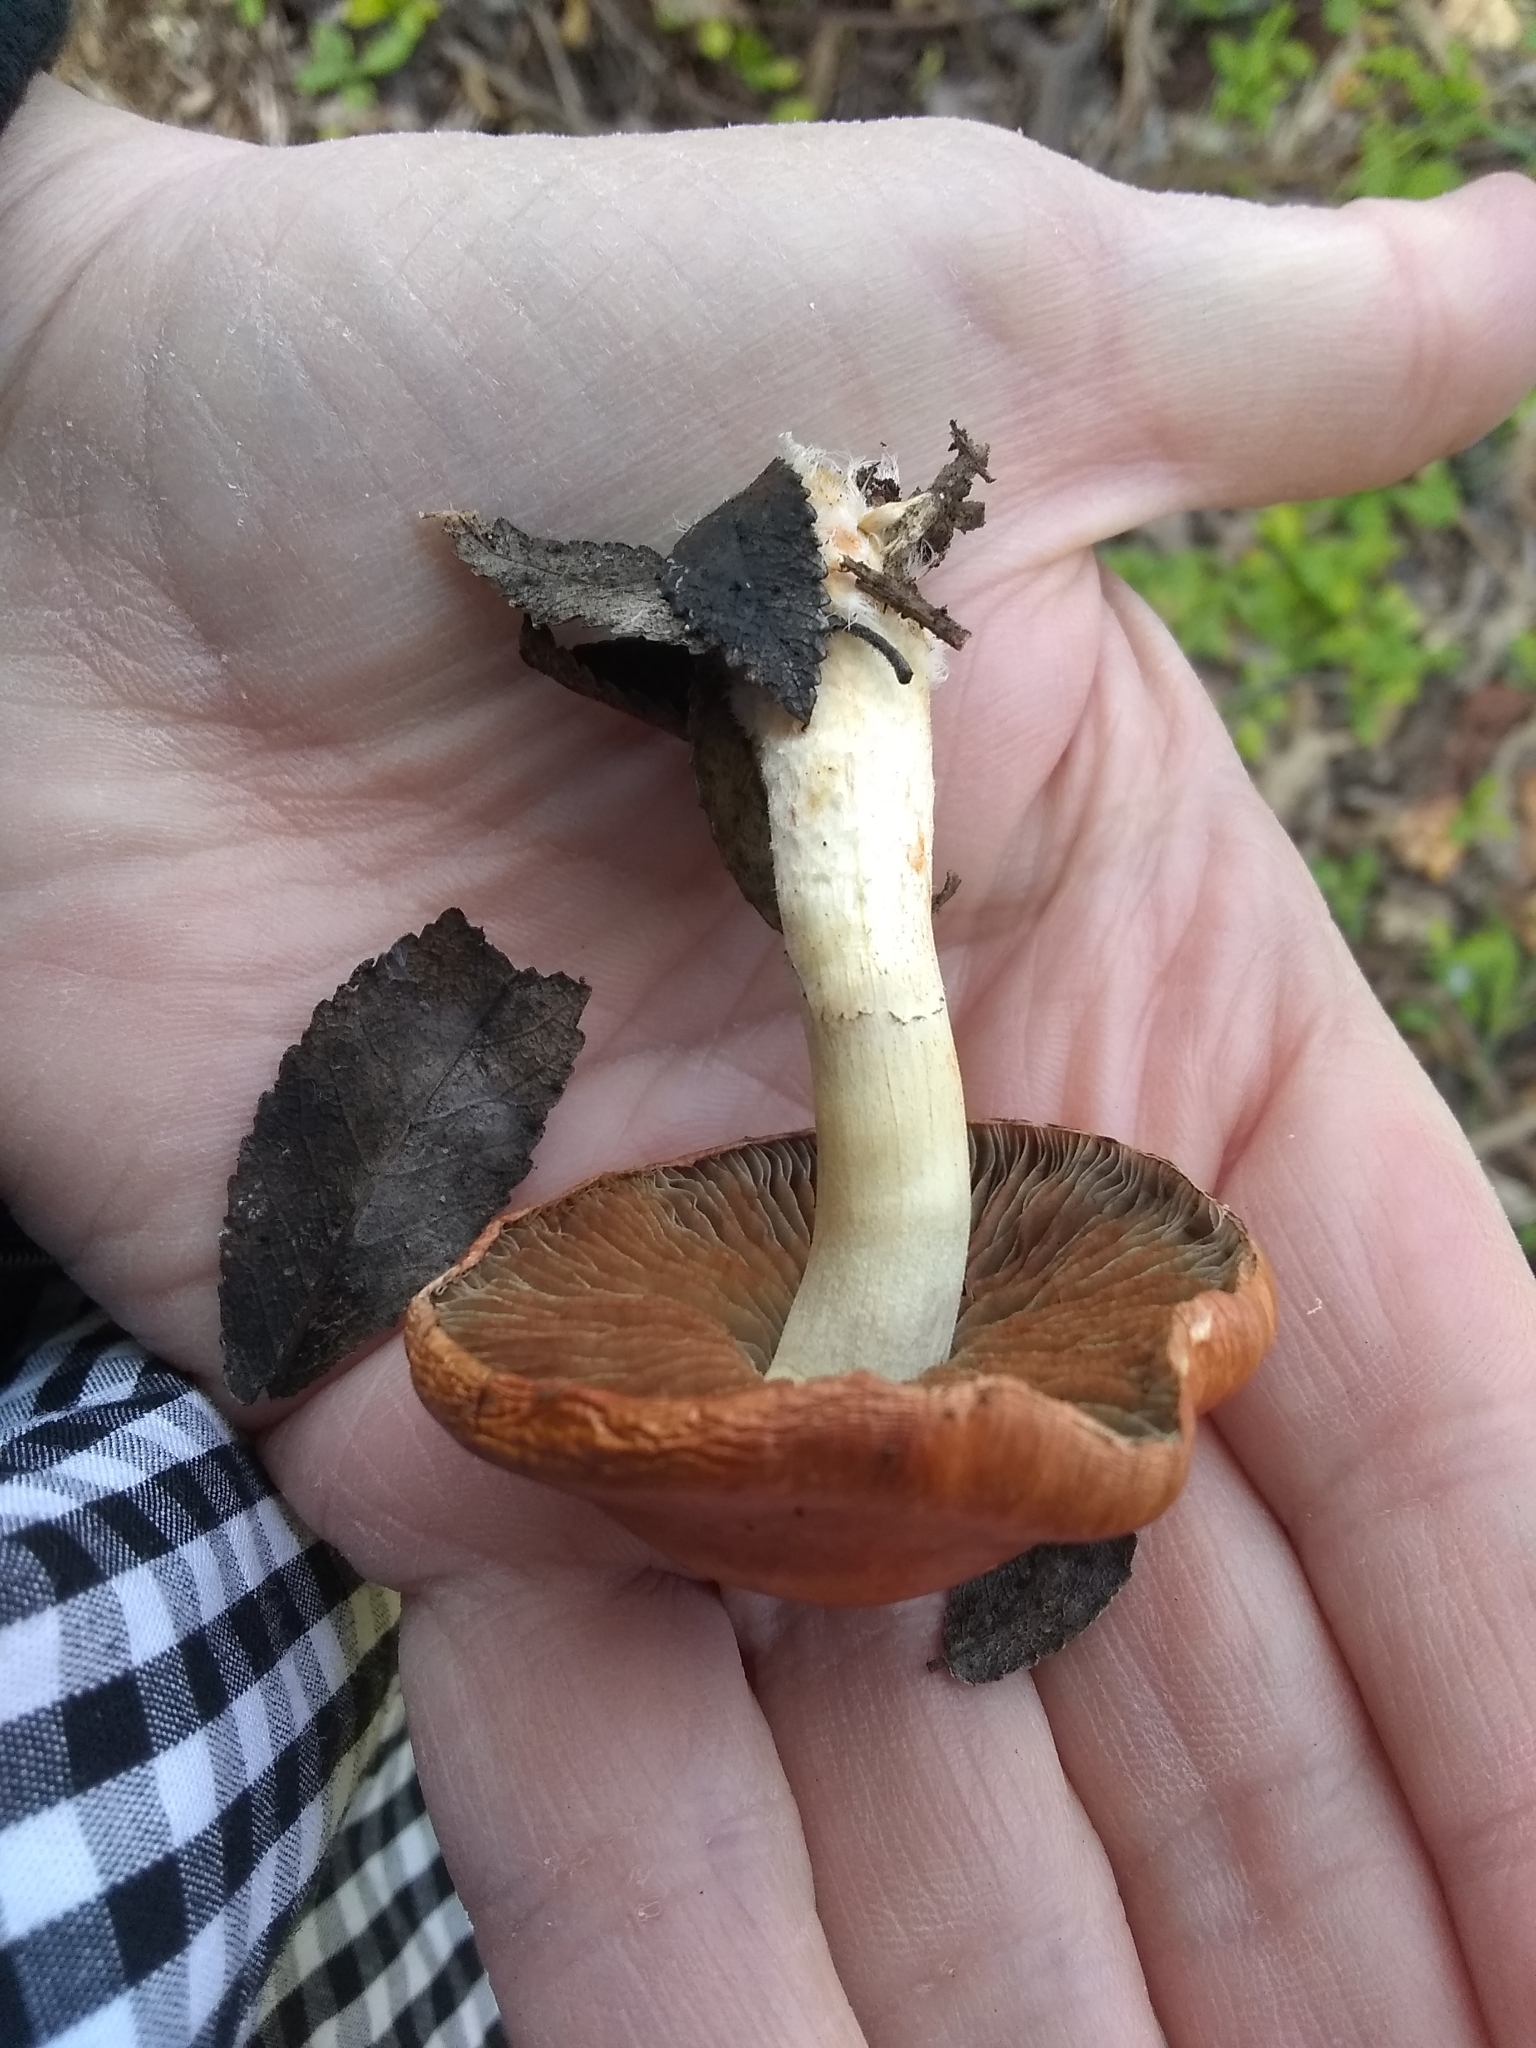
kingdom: Fungi
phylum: Basidiomycota
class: Agaricomycetes
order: Agaricales
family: Strophariaceae
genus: Leratiomyces
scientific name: Leratiomyces ceres
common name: Redlead roundhead
